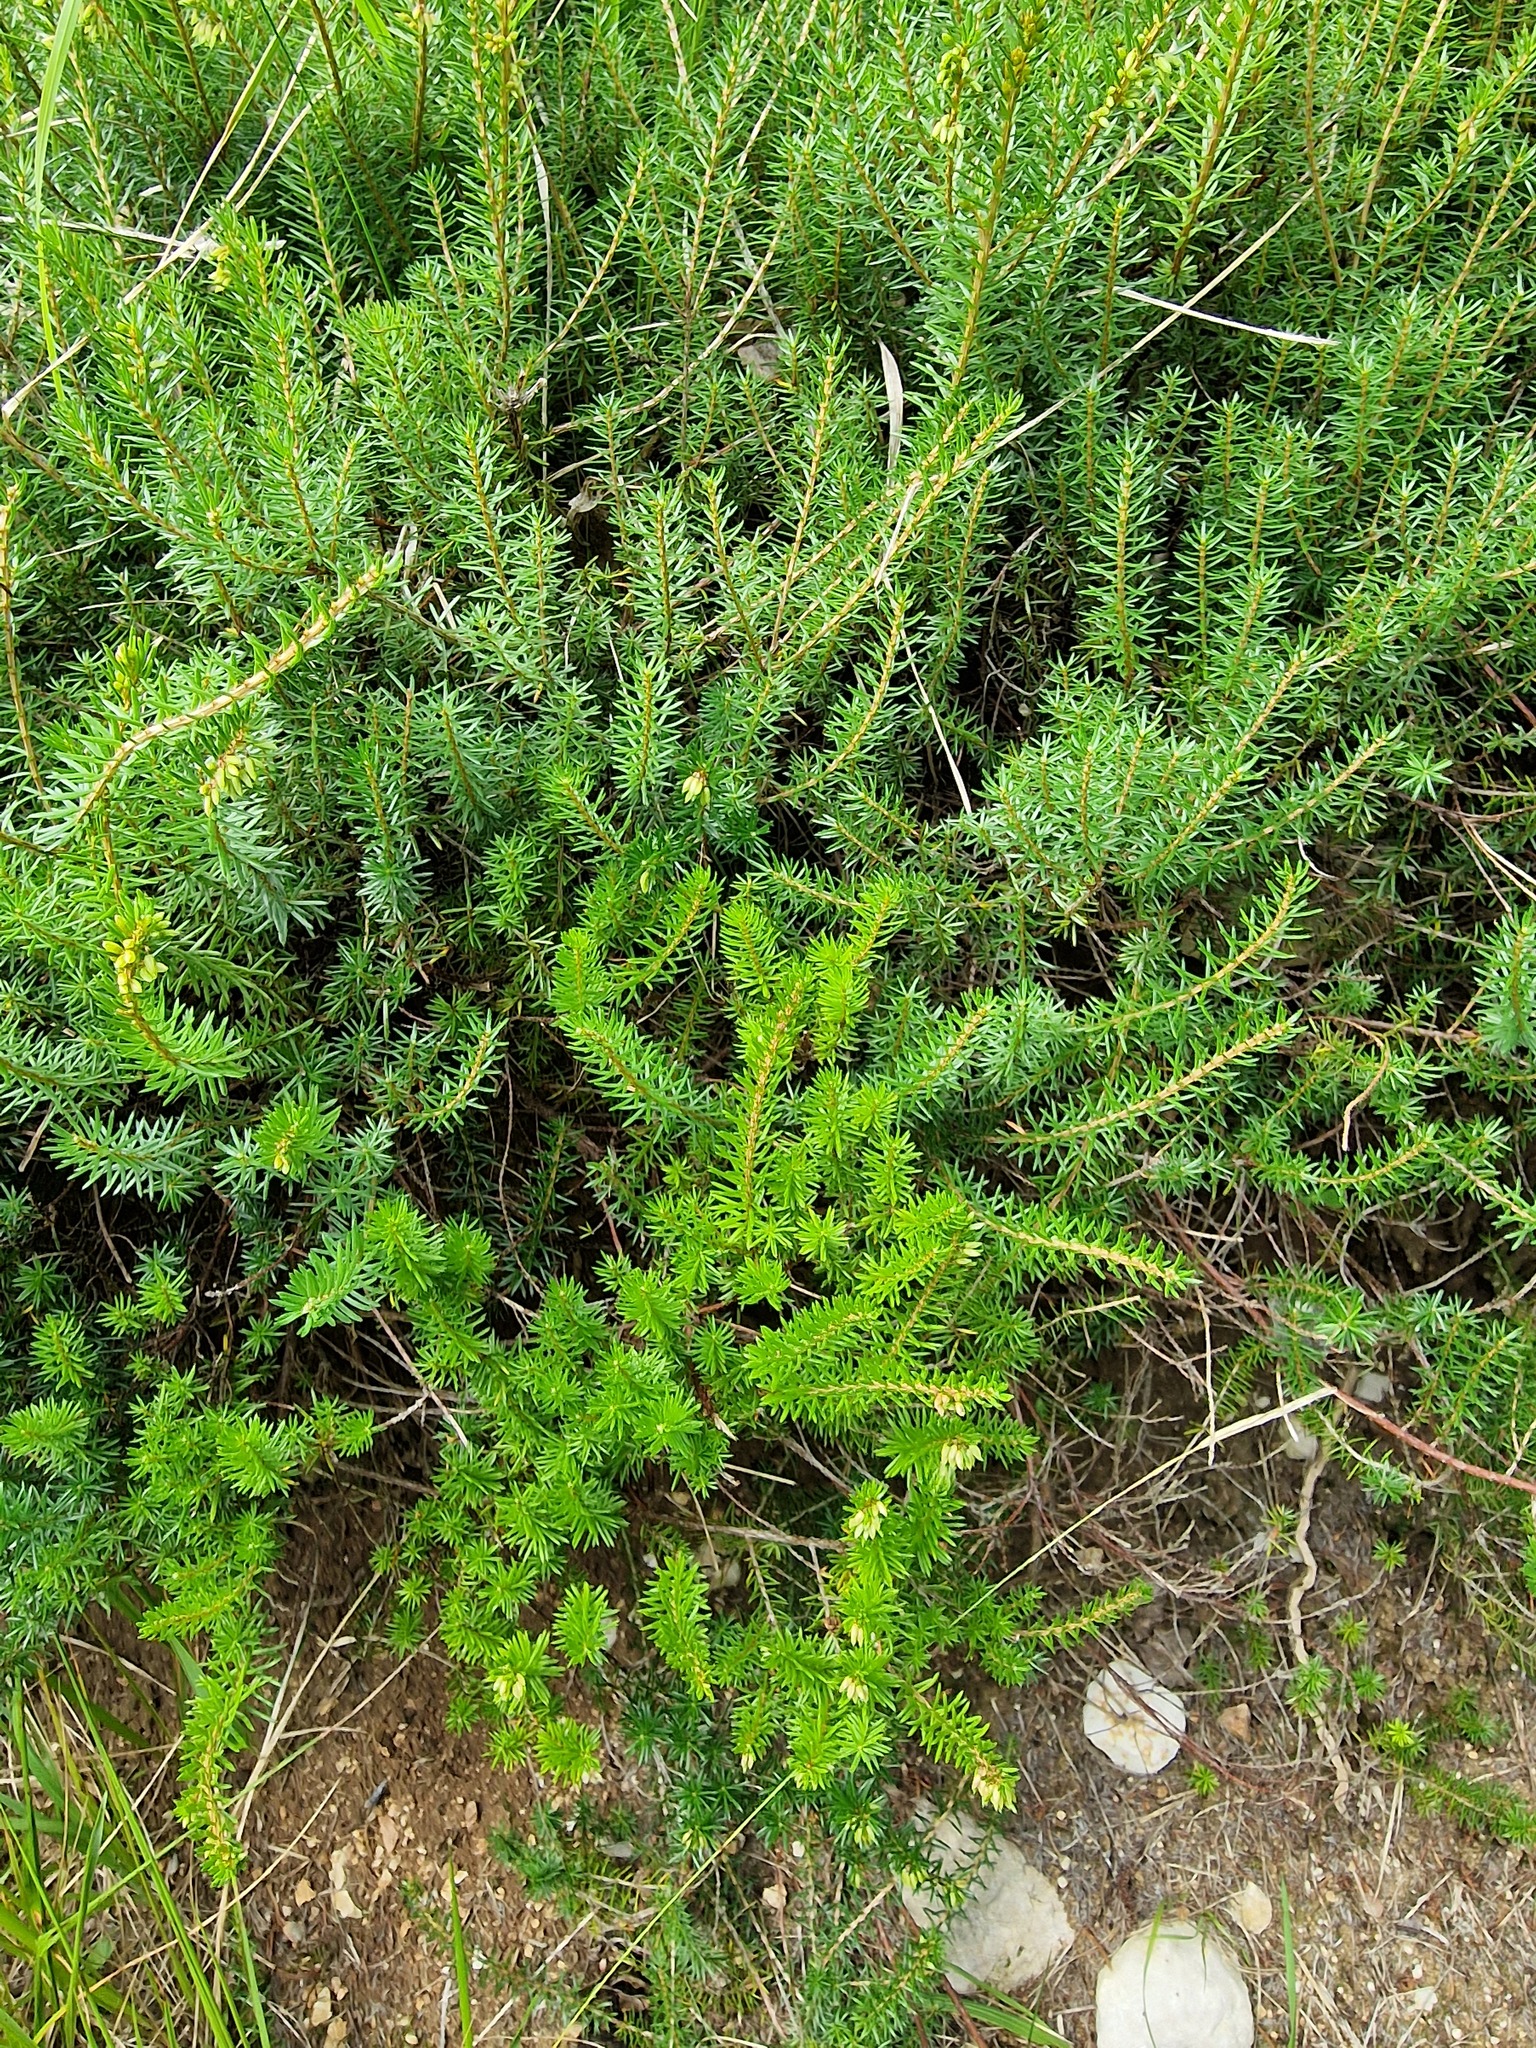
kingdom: Plantae
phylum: Tracheophyta
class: Magnoliopsida
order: Ericales
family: Ericaceae
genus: Erica
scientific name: Erica carnea
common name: Winter heath
